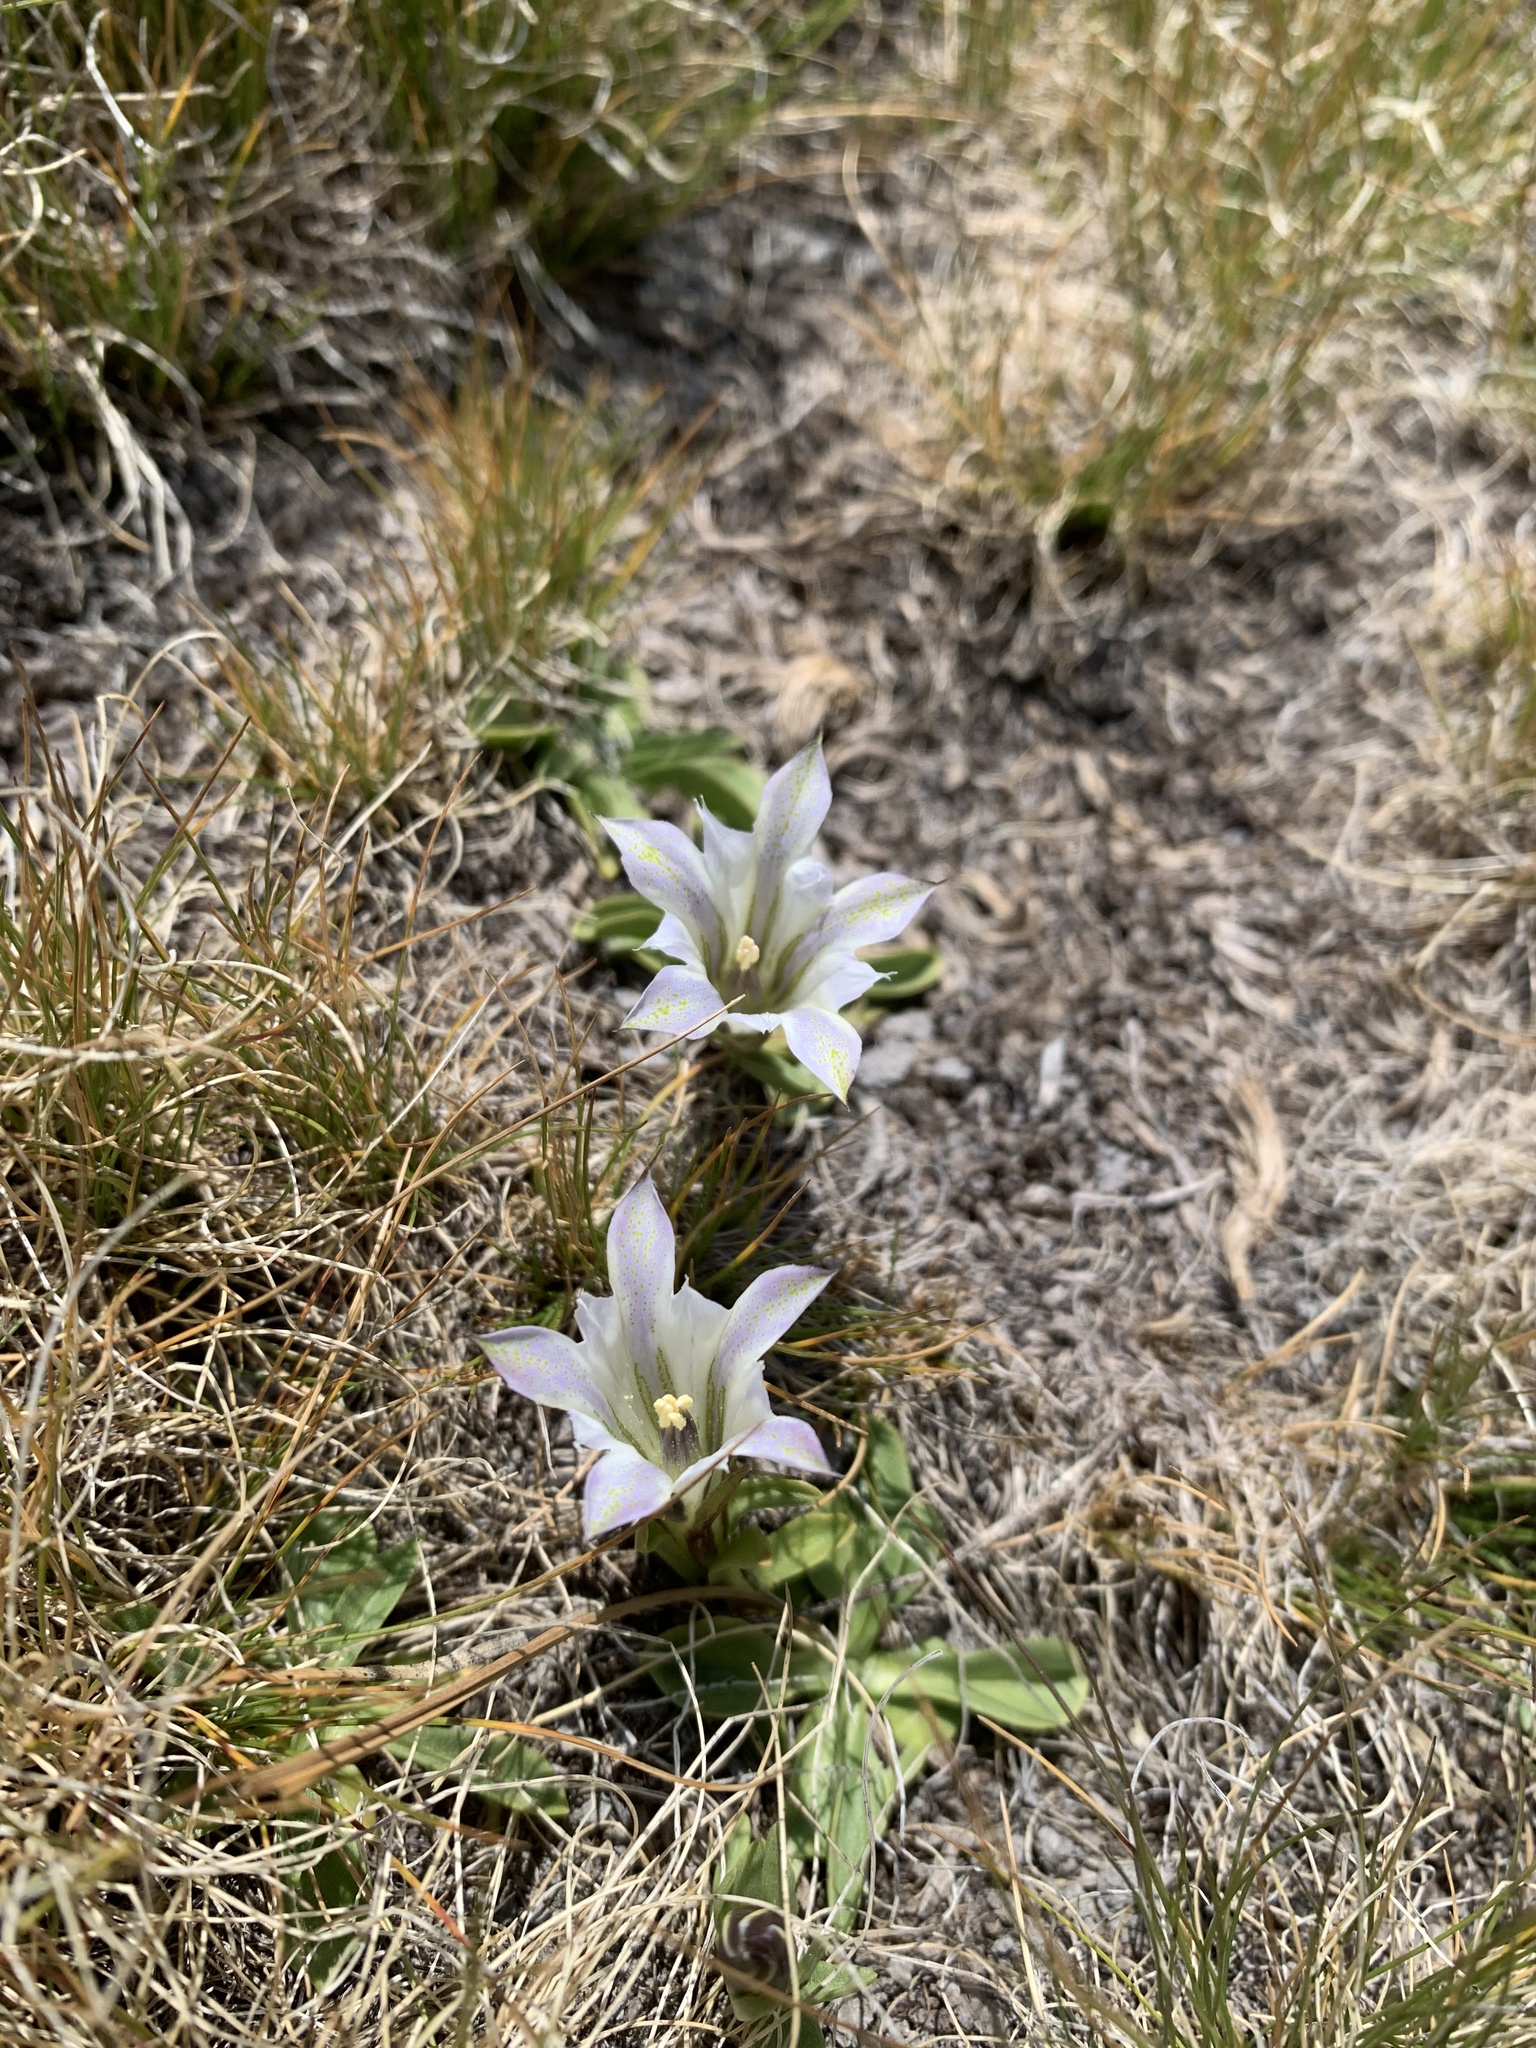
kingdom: Plantae
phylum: Tracheophyta
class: Magnoliopsida
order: Gentianales
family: Gentianaceae
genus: Gentiana
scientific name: Gentiana newberryi
